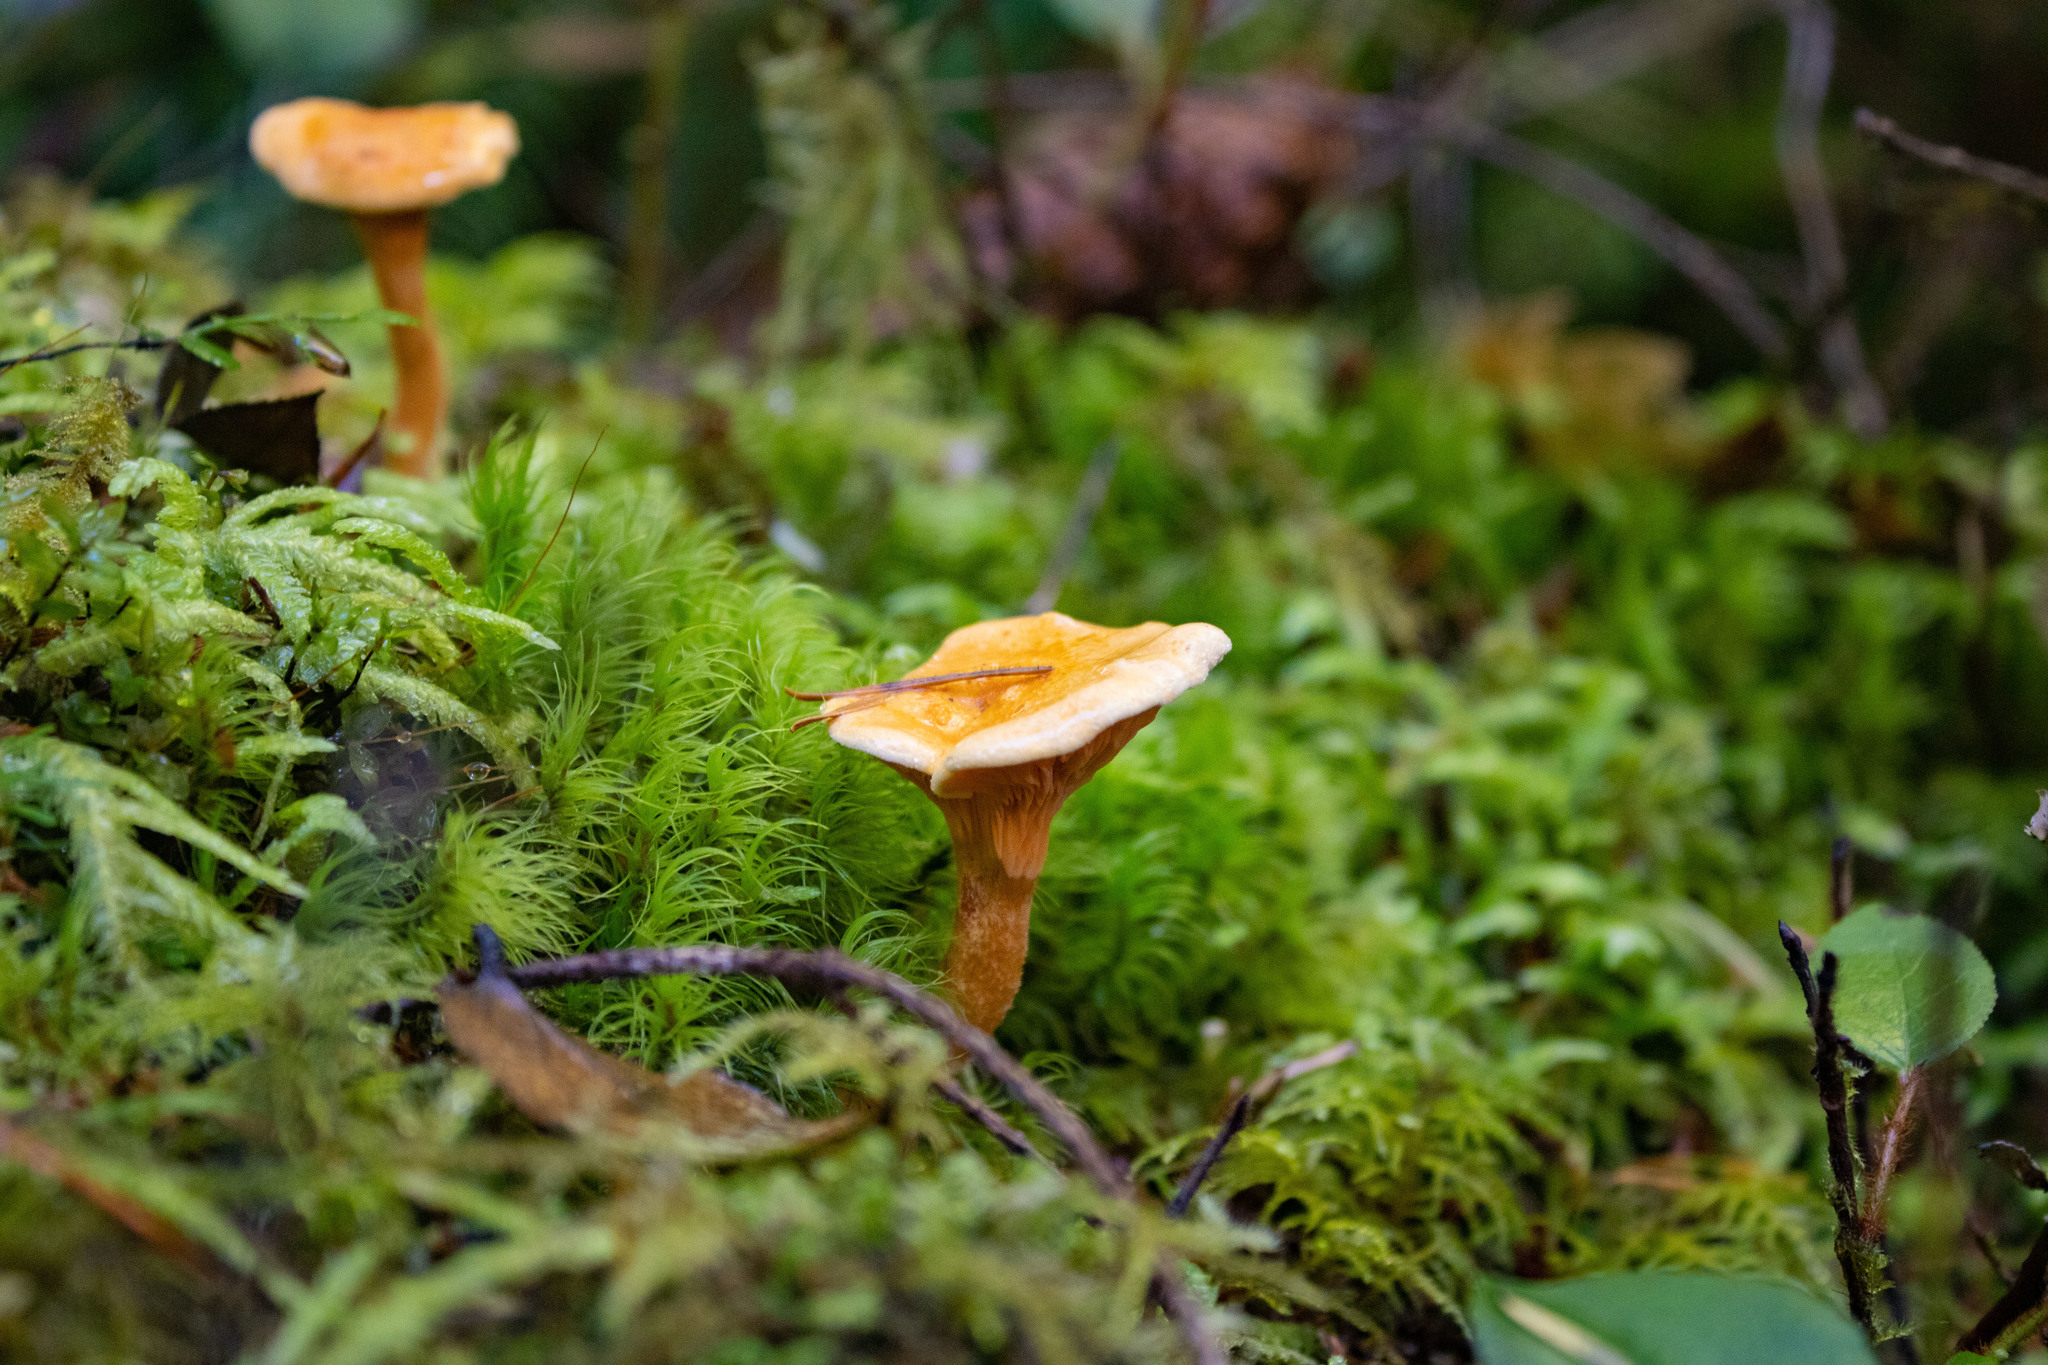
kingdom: Fungi
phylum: Basidiomycota
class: Agaricomycetes
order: Boletales
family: Hygrophoropsidaceae
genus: Hygrophoropsis
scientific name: Hygrophoropsis aurantiaca
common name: False chanterelle
